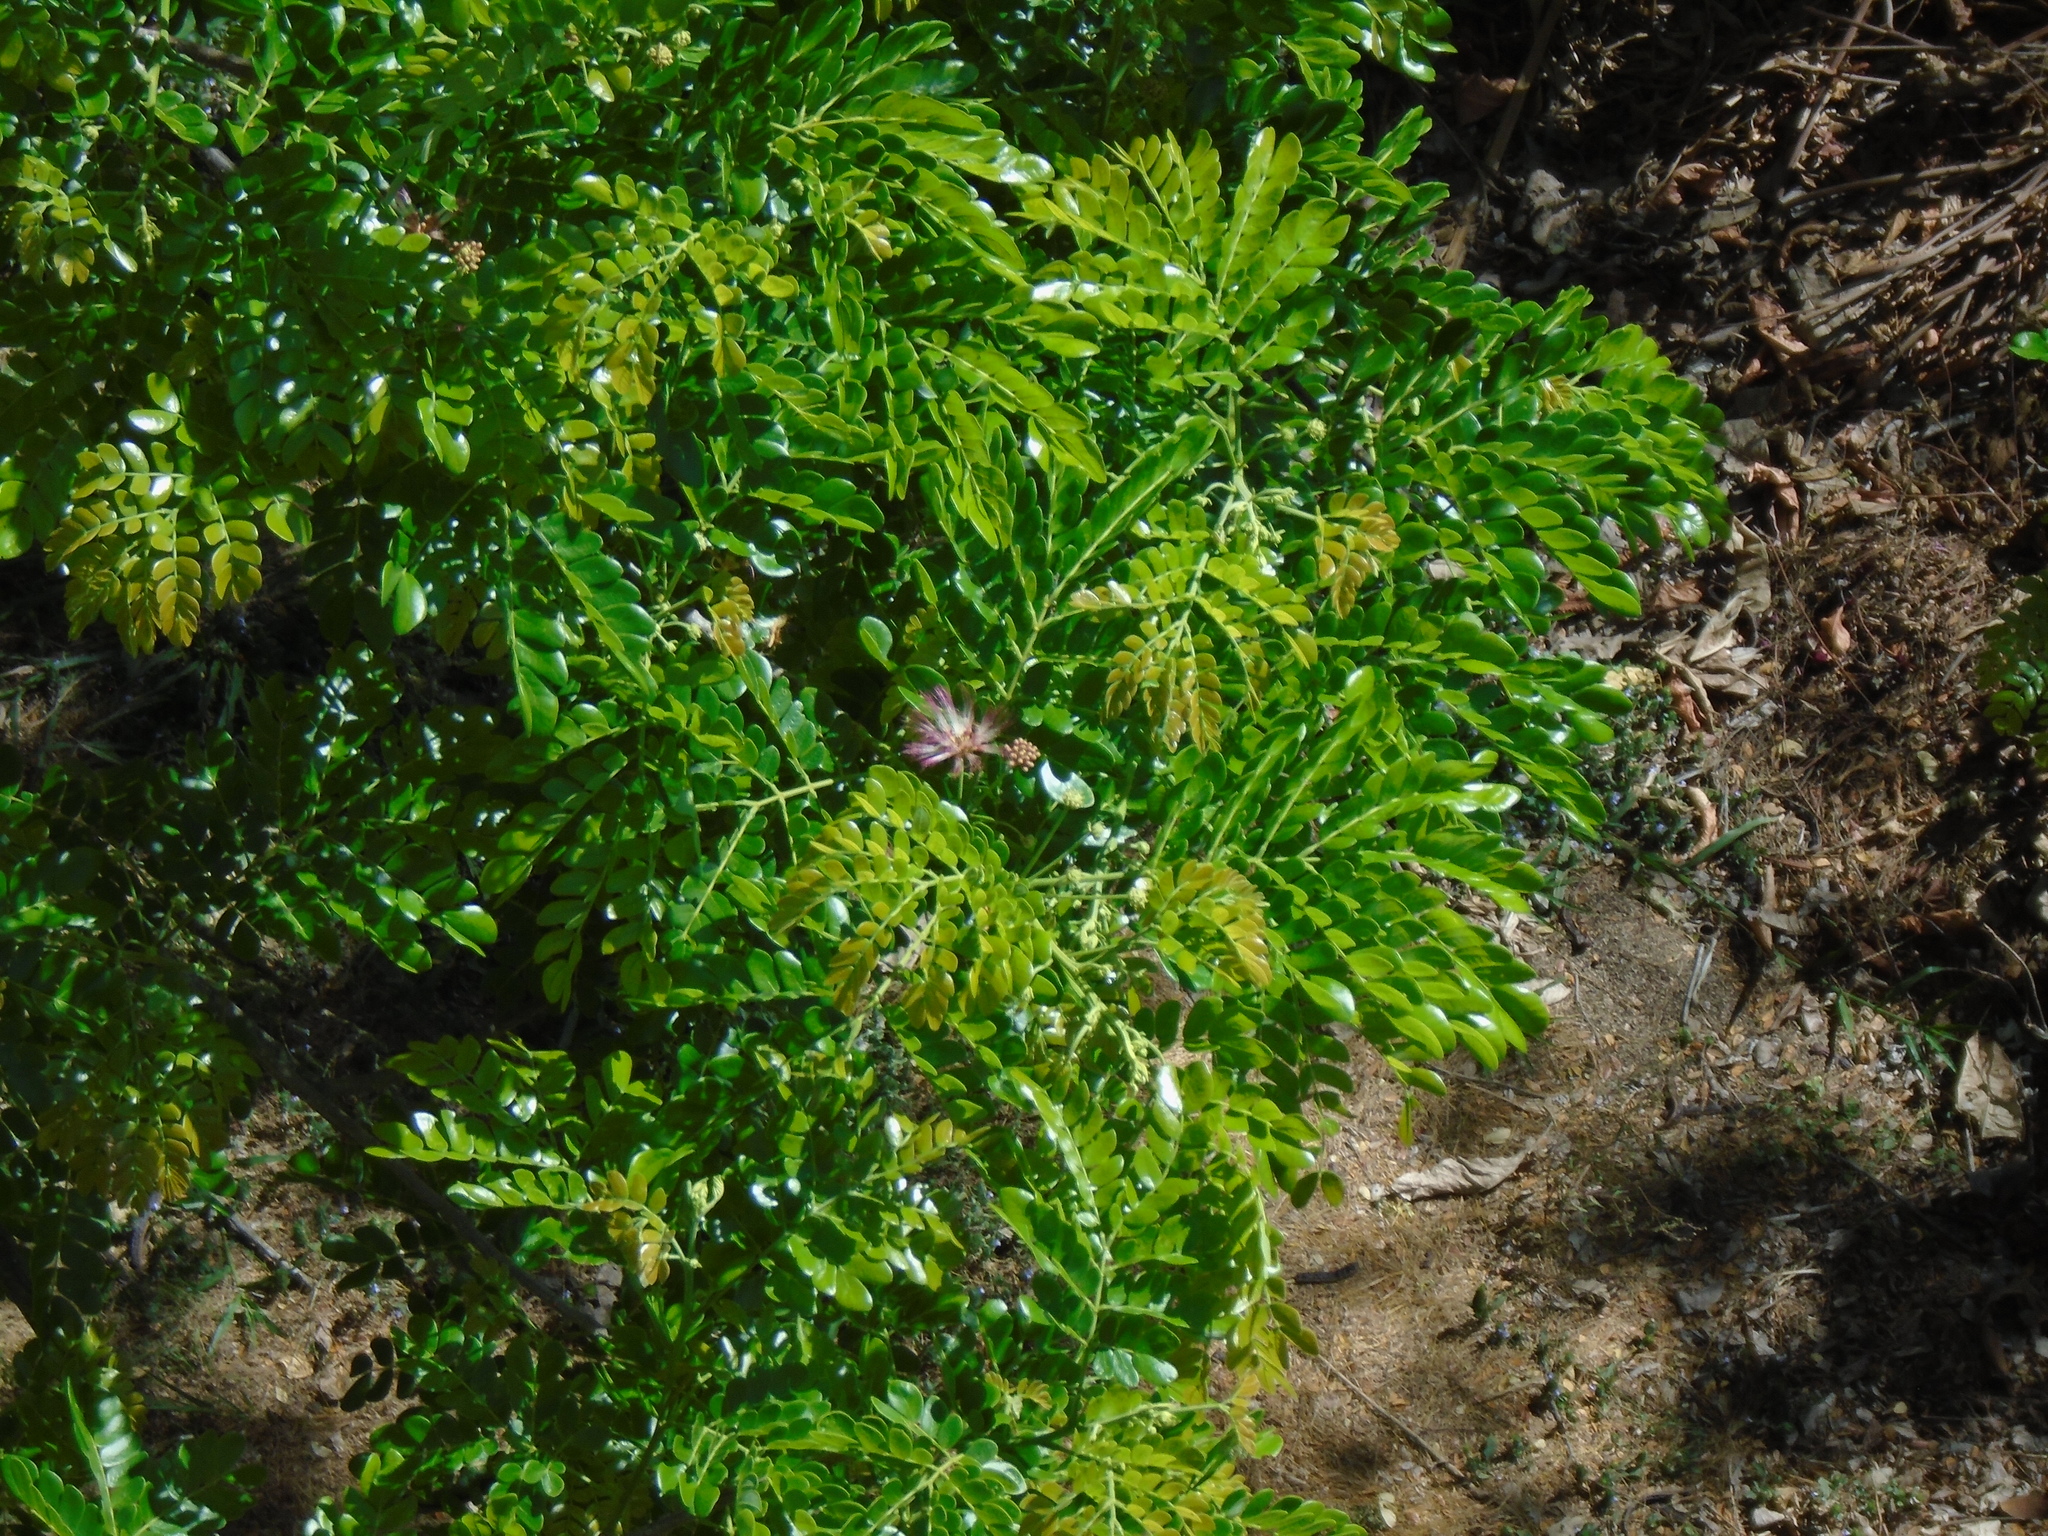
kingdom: Plantae
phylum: Tracheophyta
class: Magnoliopsida
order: Fabales
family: Fabaceae
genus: Samanea
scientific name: Samanea saman
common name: Raintree
